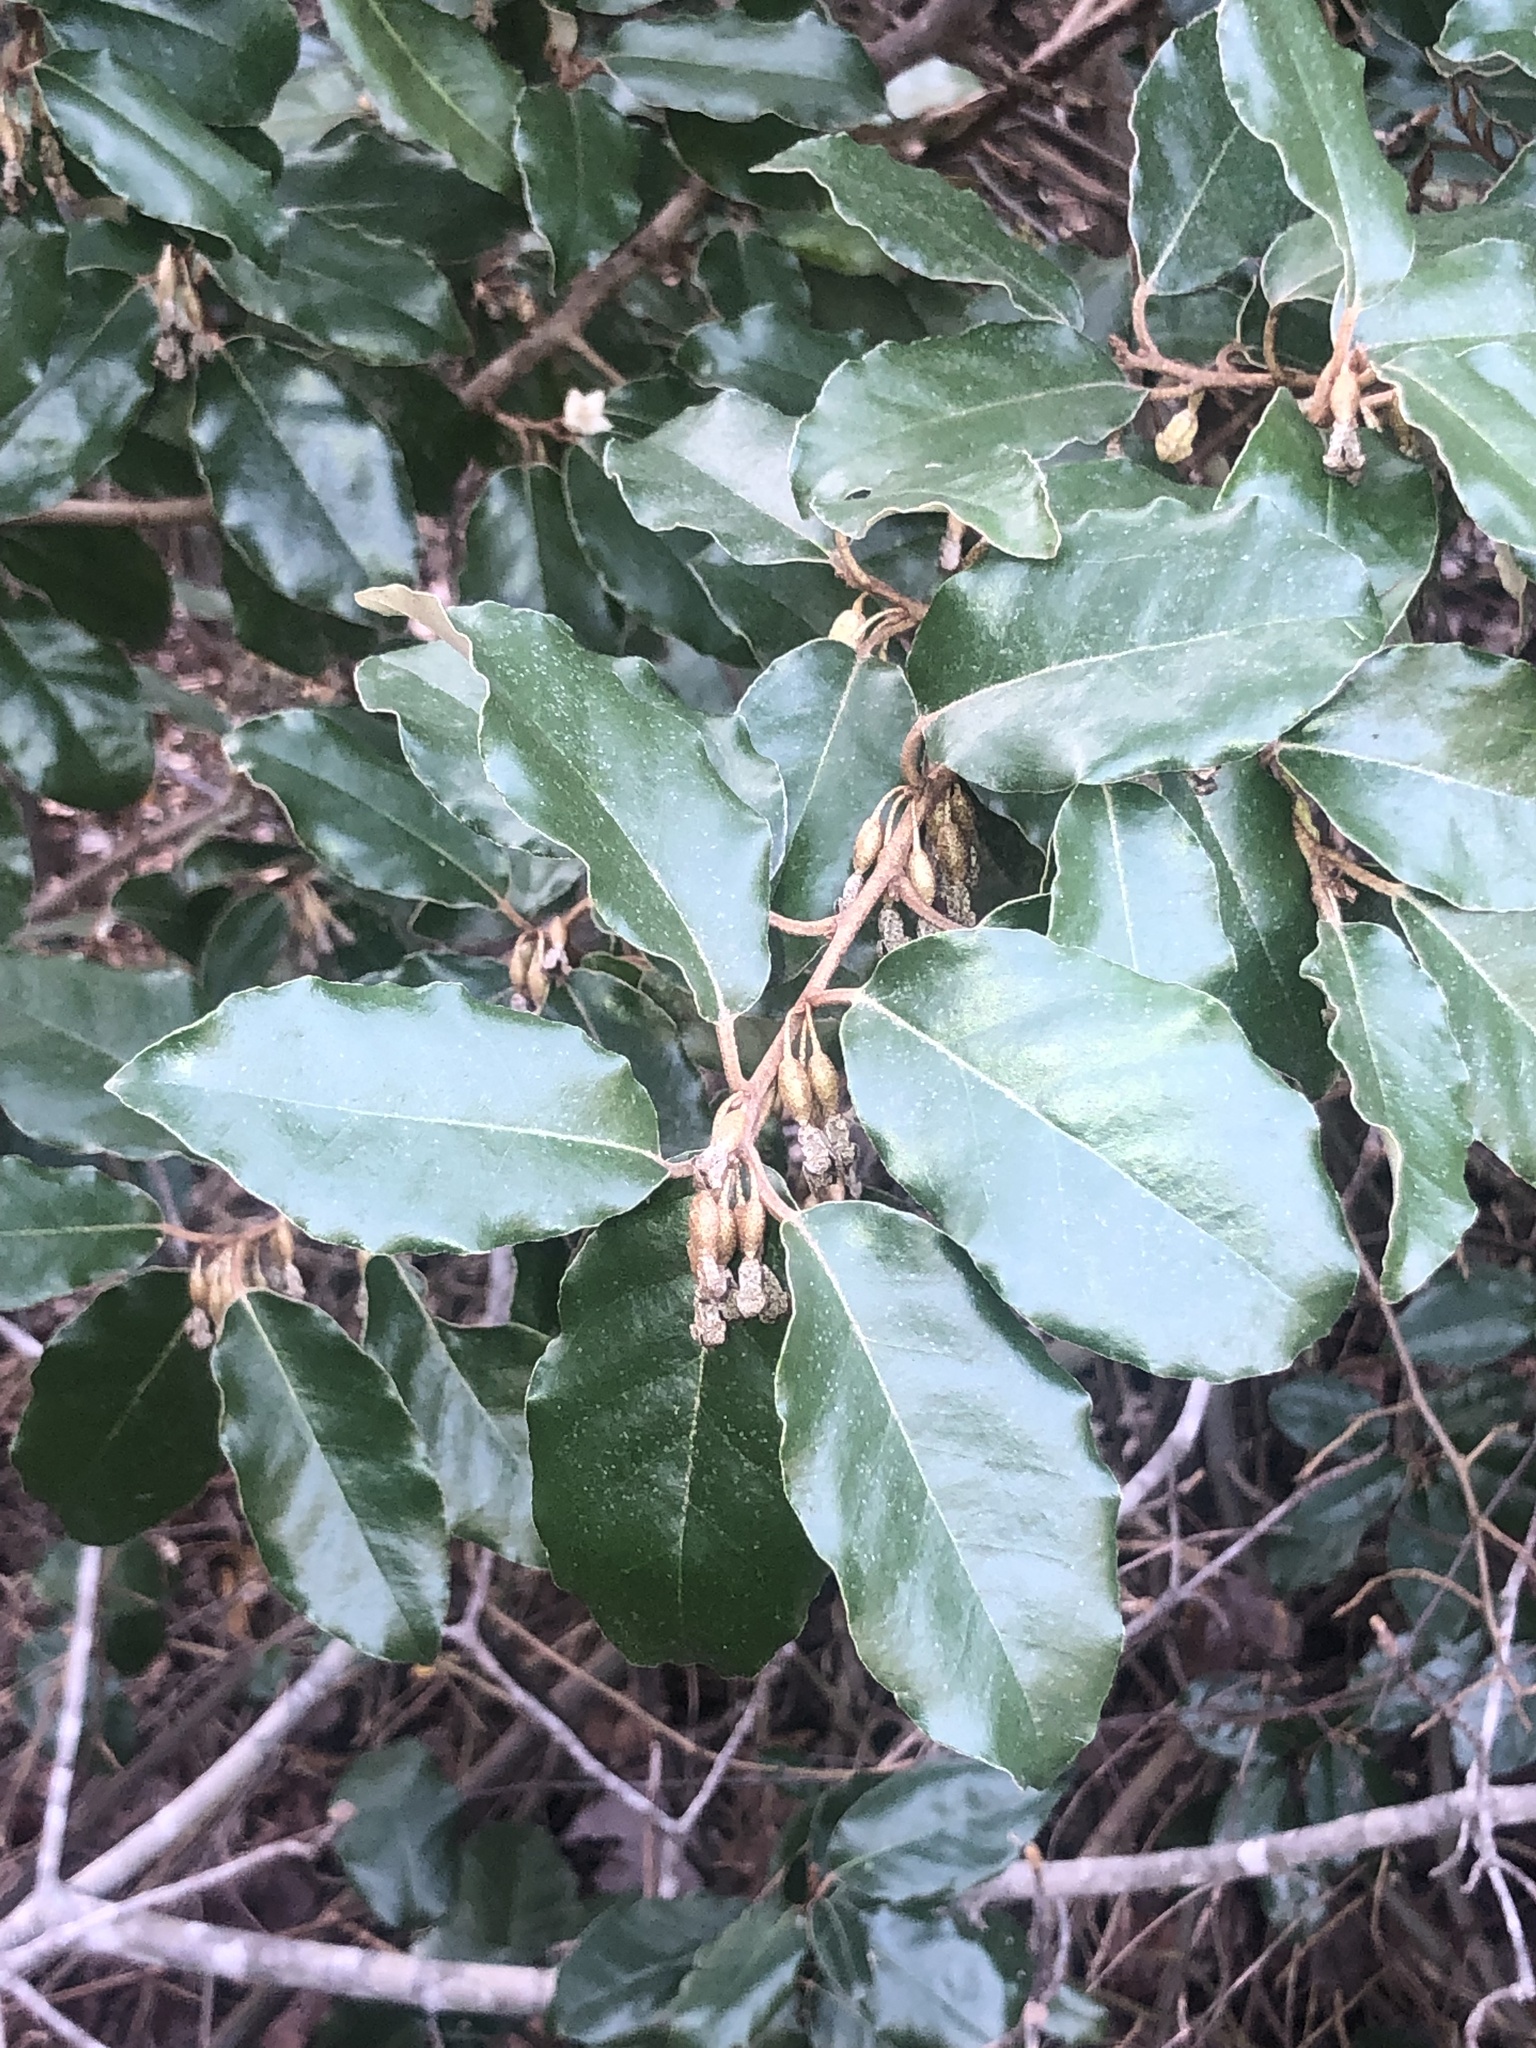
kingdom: Plantae
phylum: Tracheophyta
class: Magnoliopsida
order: Rosales
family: Elaeagnaceae
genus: Elaeagnus
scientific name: Elaeagnus pungens
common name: Spiny oleaster
